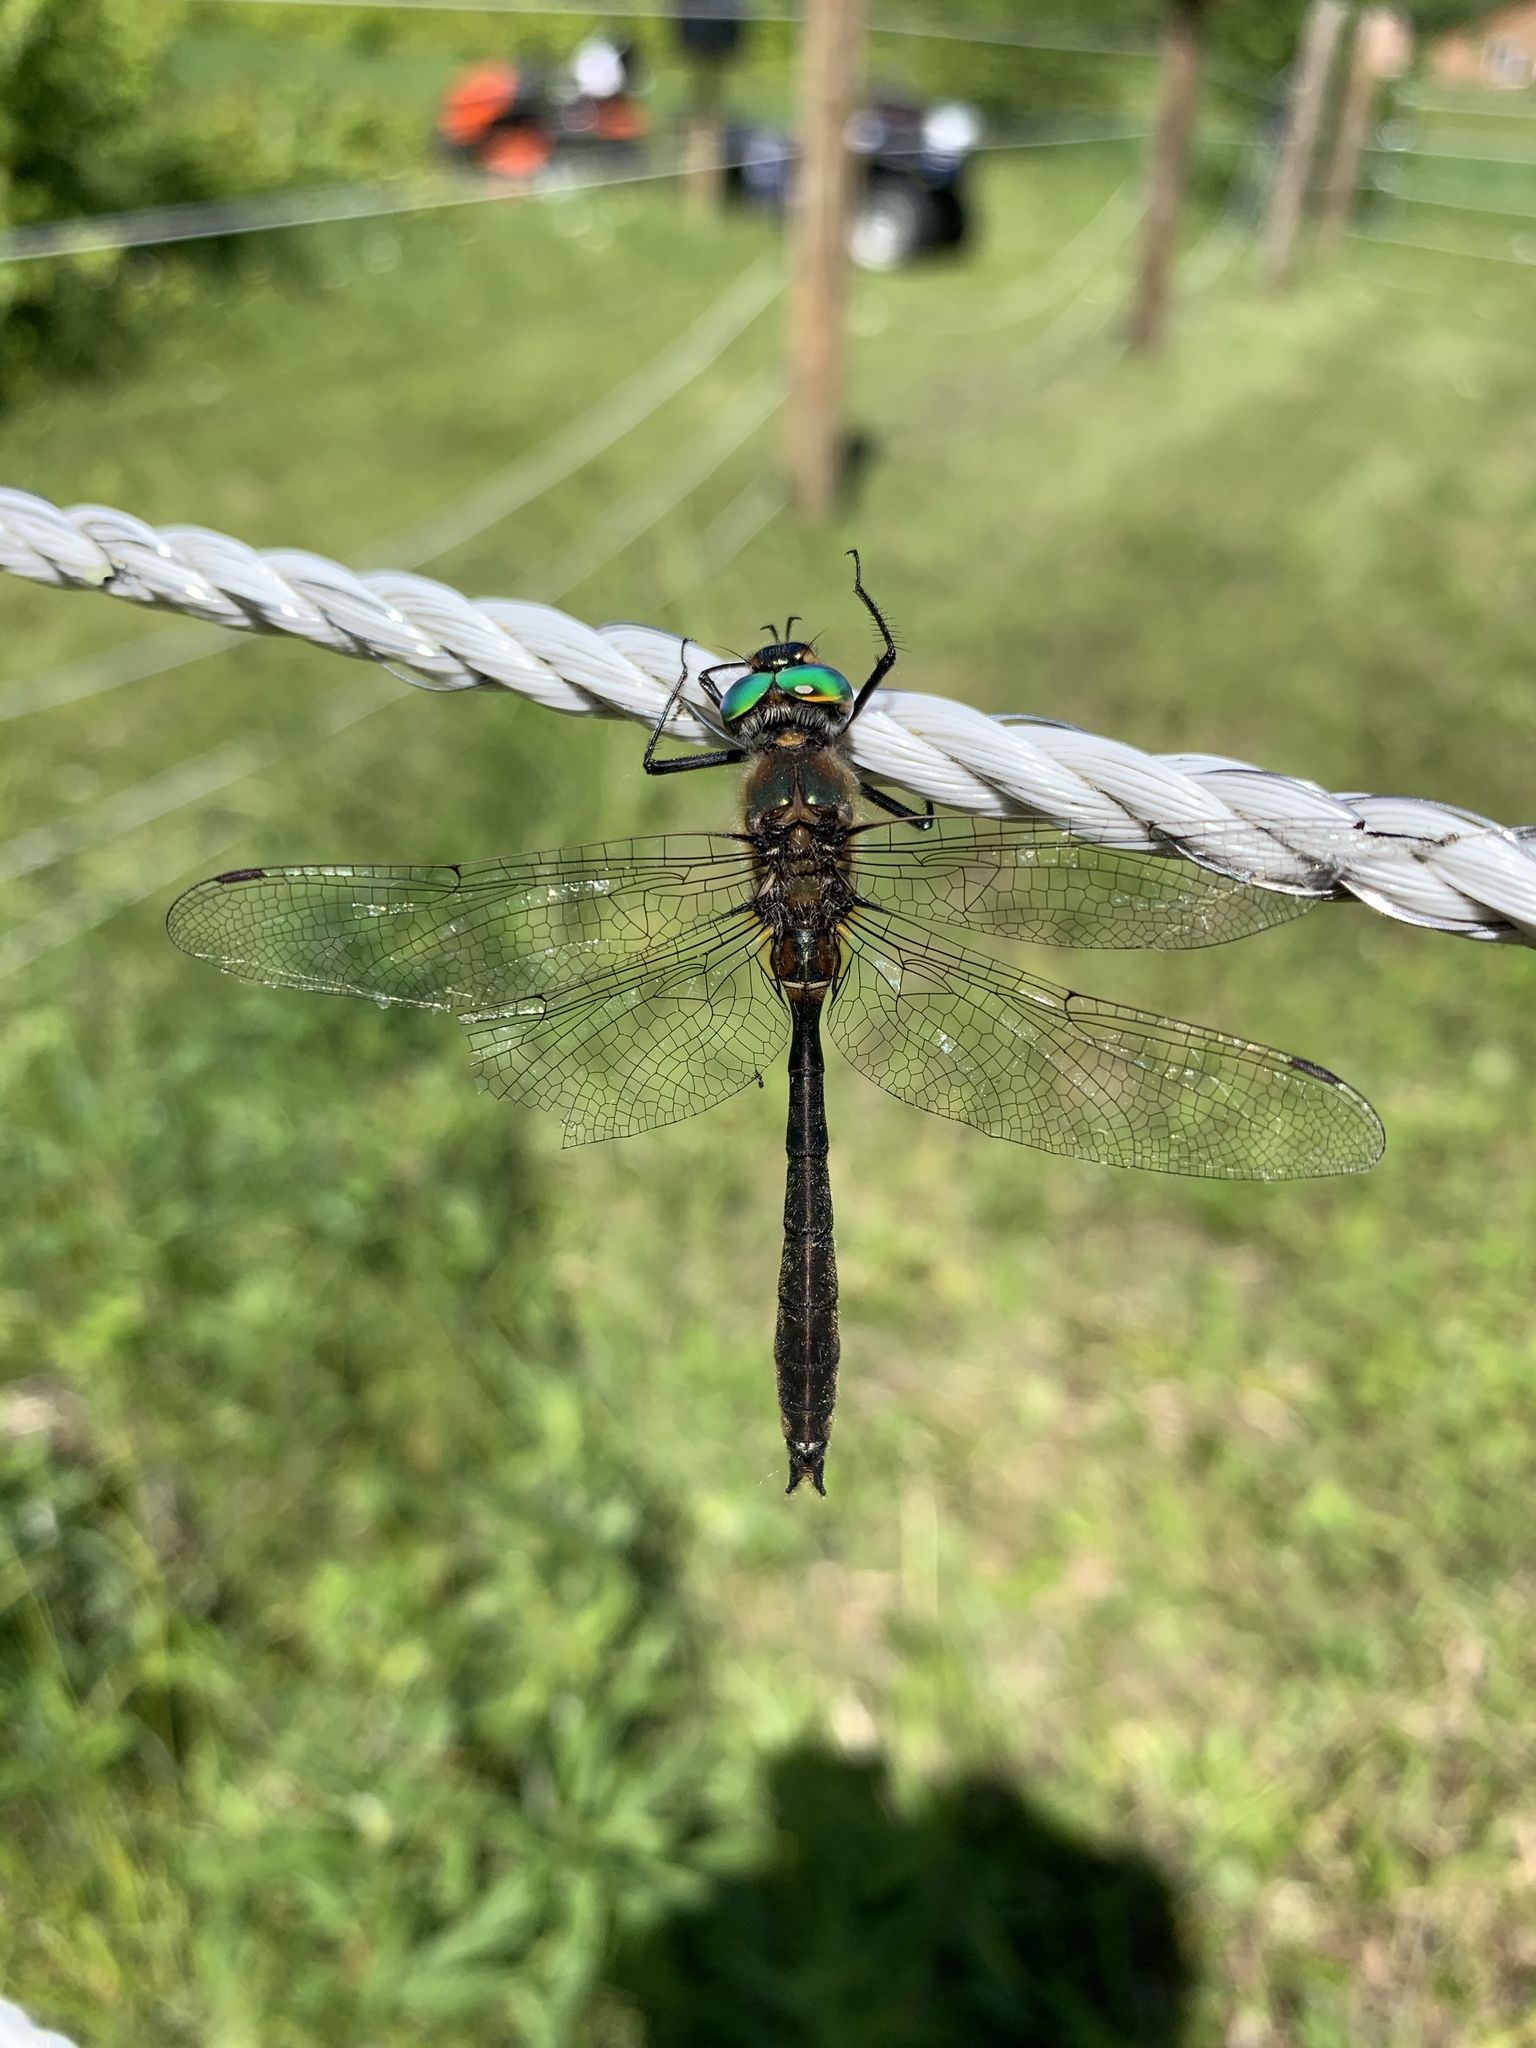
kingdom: Animalia
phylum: Arthropoda
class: Insecta
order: Odonata
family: Corduliidae
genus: Cordulia
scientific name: Cordulia shurtleffii
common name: American emerald
